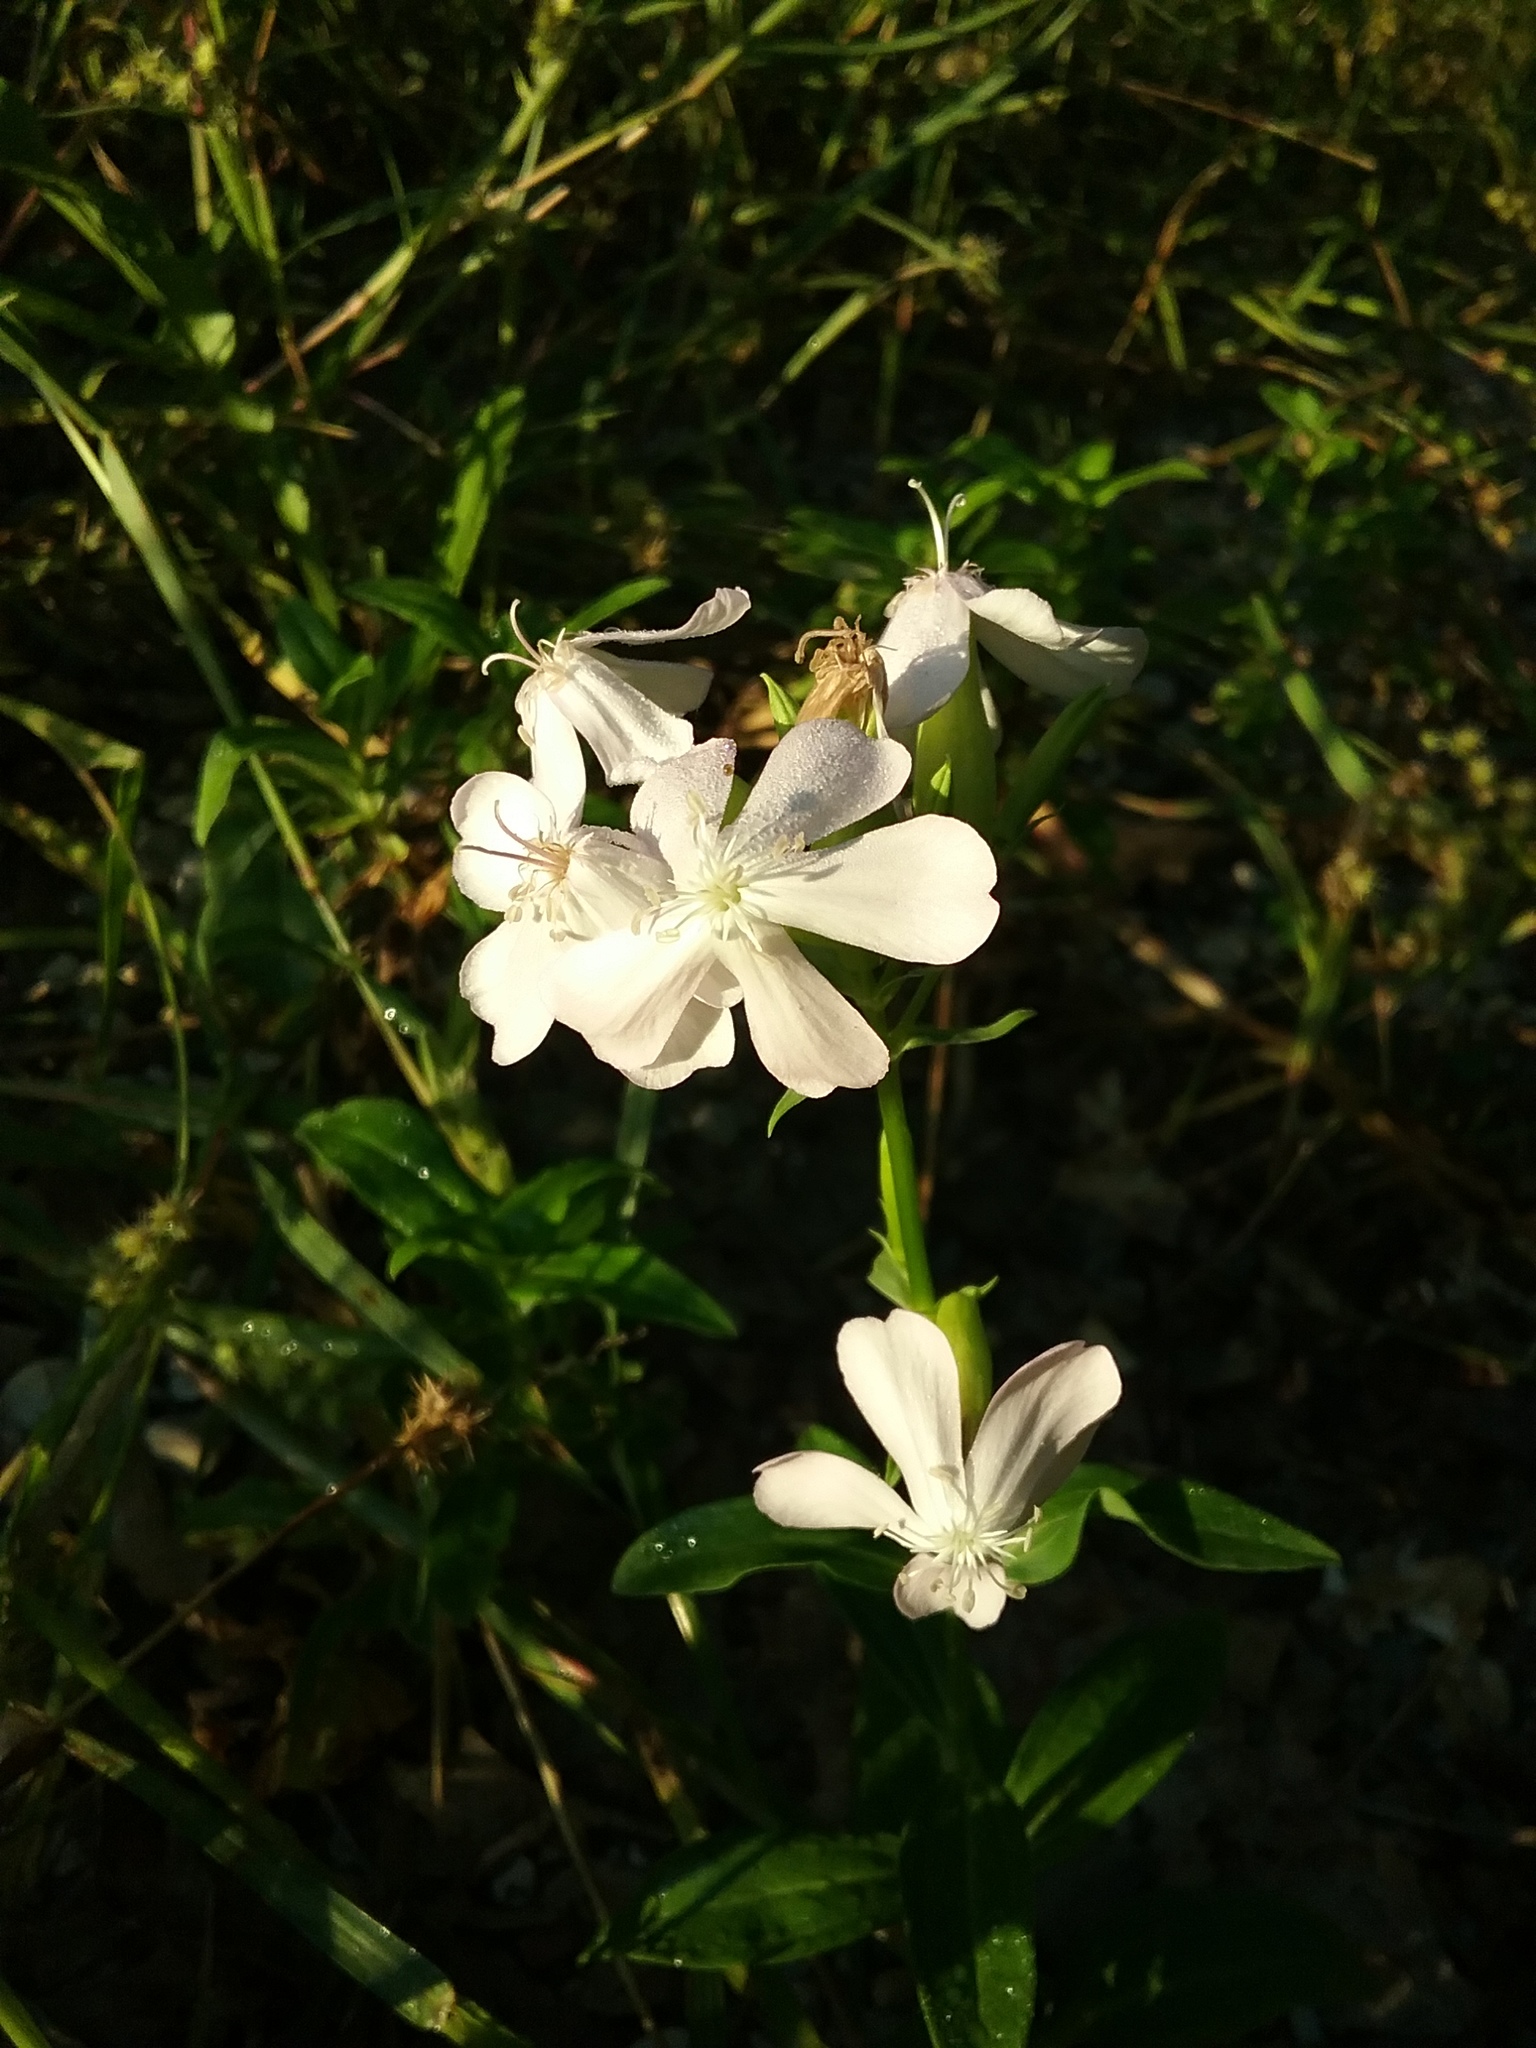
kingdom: Plantae
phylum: Tracheophyta
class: Magnoliopsida
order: Caryophyllales
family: Caryophyllaceae
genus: Saponaria
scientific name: Saponaria officinalis
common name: Soapwort
